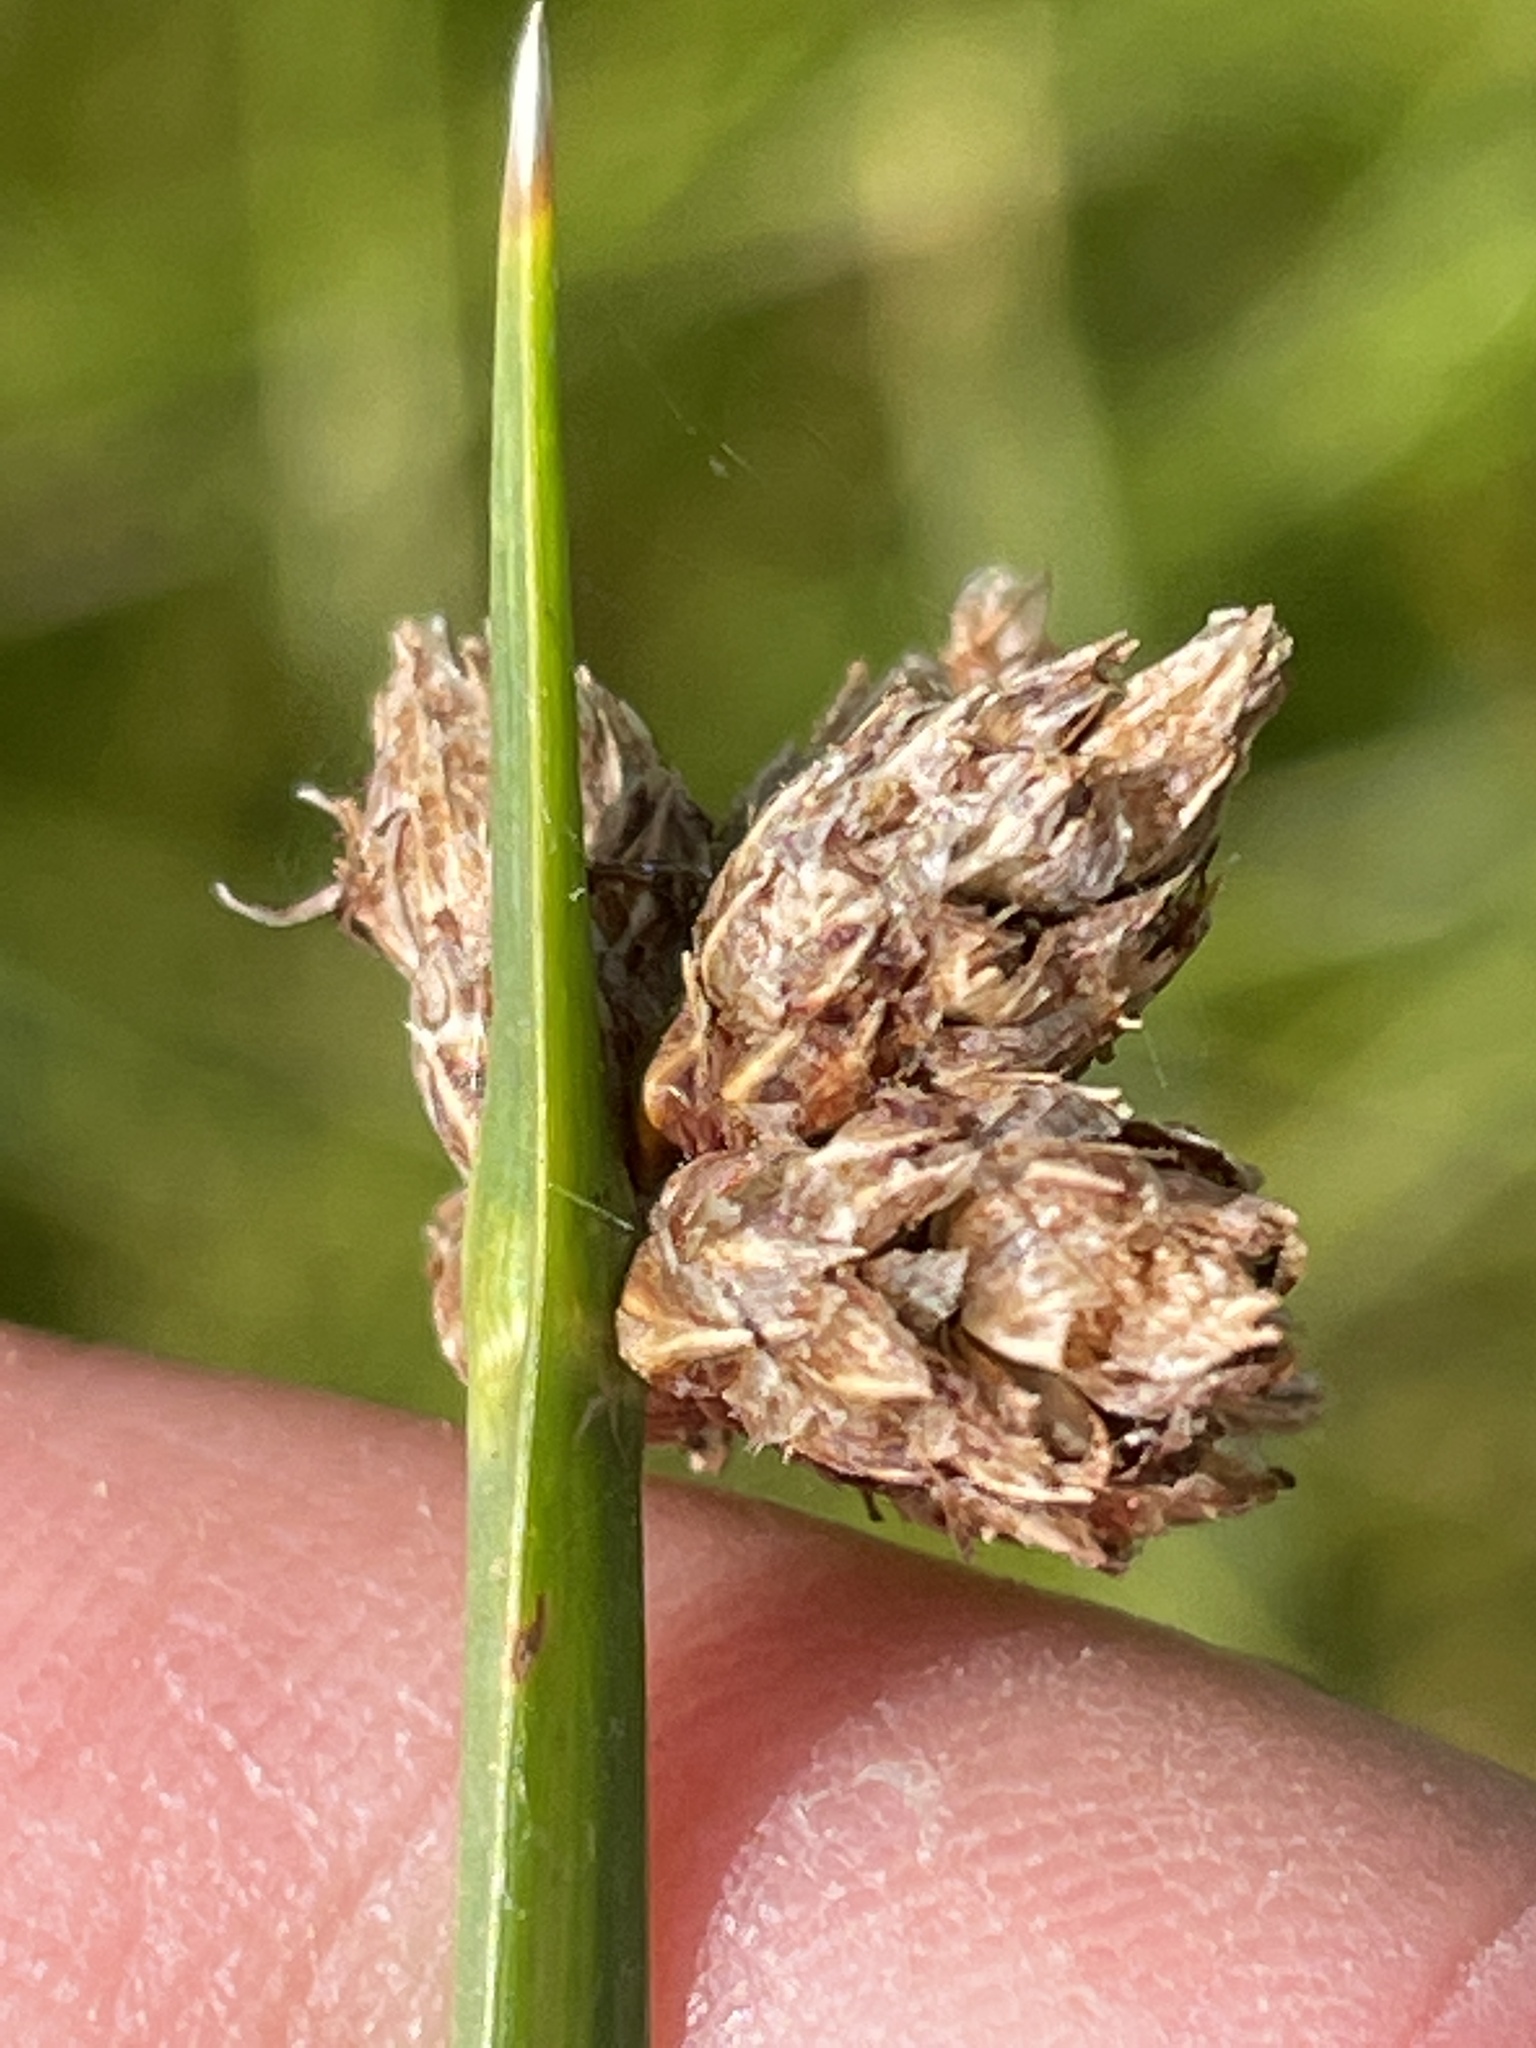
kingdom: Plantae
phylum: Tracheophyta
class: Liliopsida
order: Poales
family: Cyperaceae
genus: Schoenoplectus
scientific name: Schoenoplectus americanus
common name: American three-square bulrush
